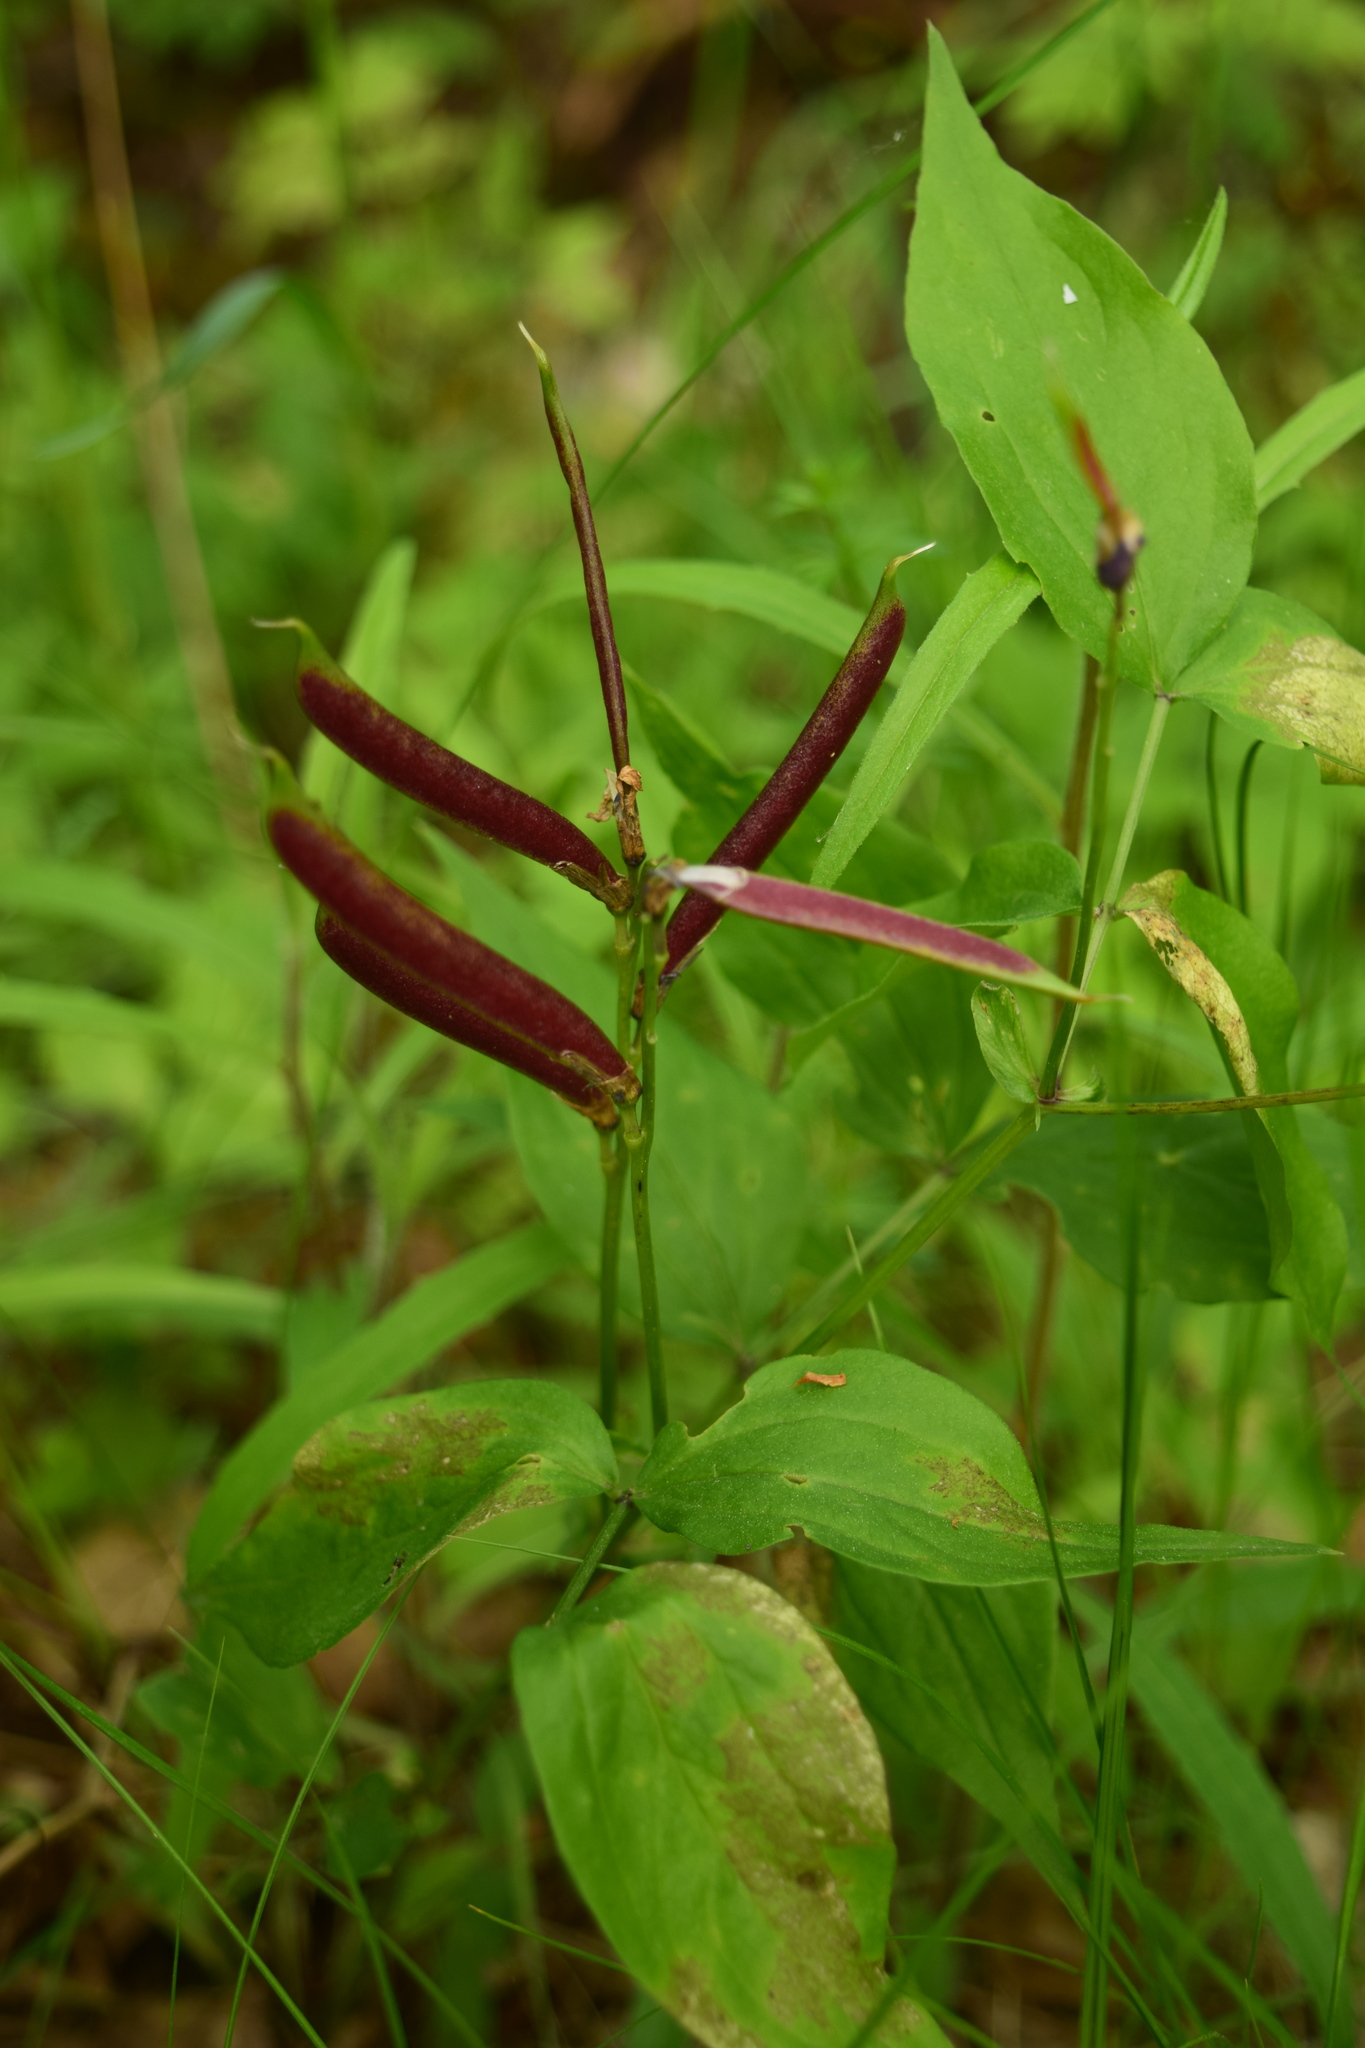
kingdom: Plantae
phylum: Tracheophyta
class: Magnoliopsida
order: Fabales
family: Fabaceae
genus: Lathyrus
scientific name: Lathyrus vernus
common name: Spring pea
